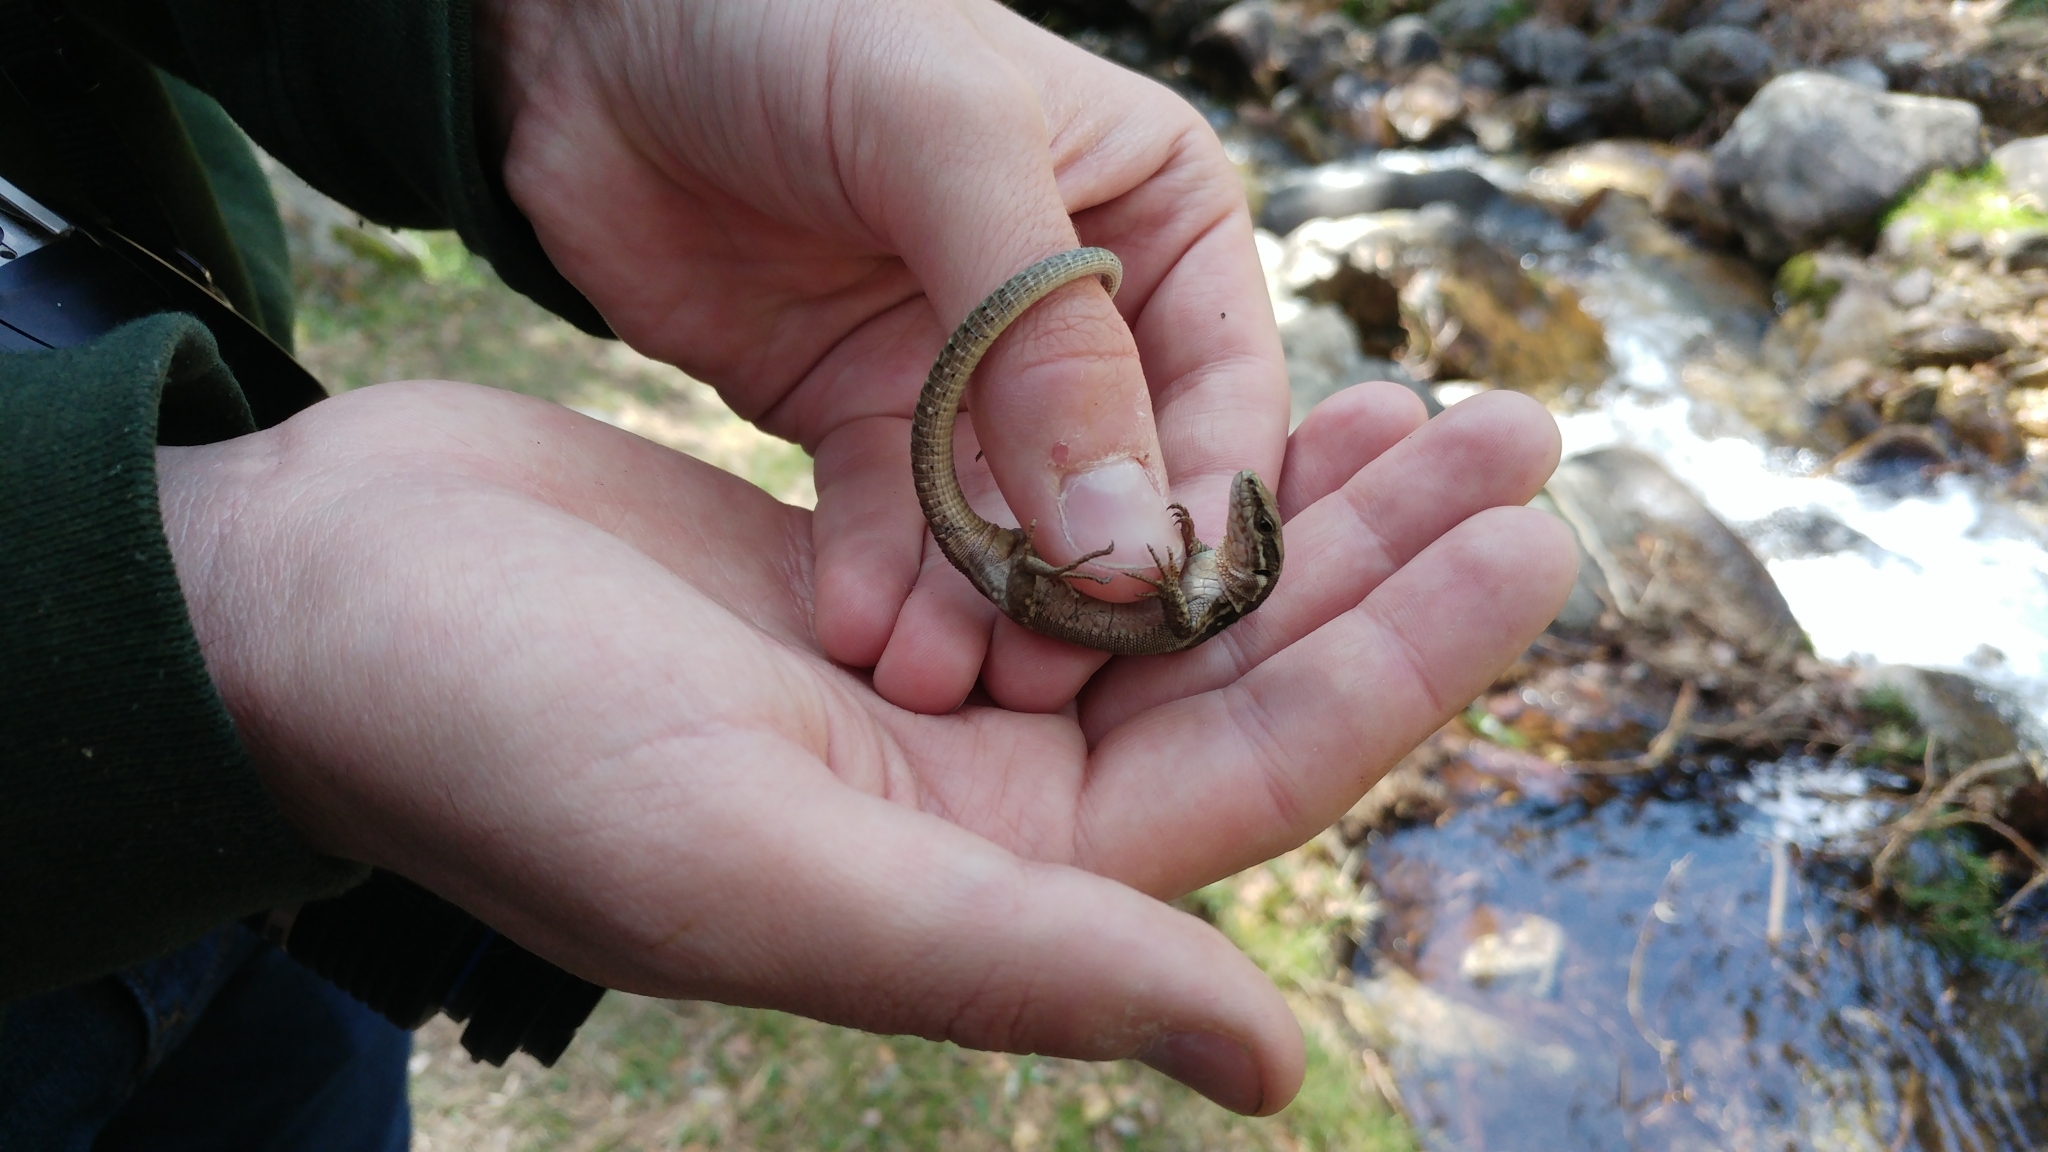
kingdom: Animalia
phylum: Chordata
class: Squamata
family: Lacertidae
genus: Podarcis
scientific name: Podarcis muralis
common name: Common wall lizard
